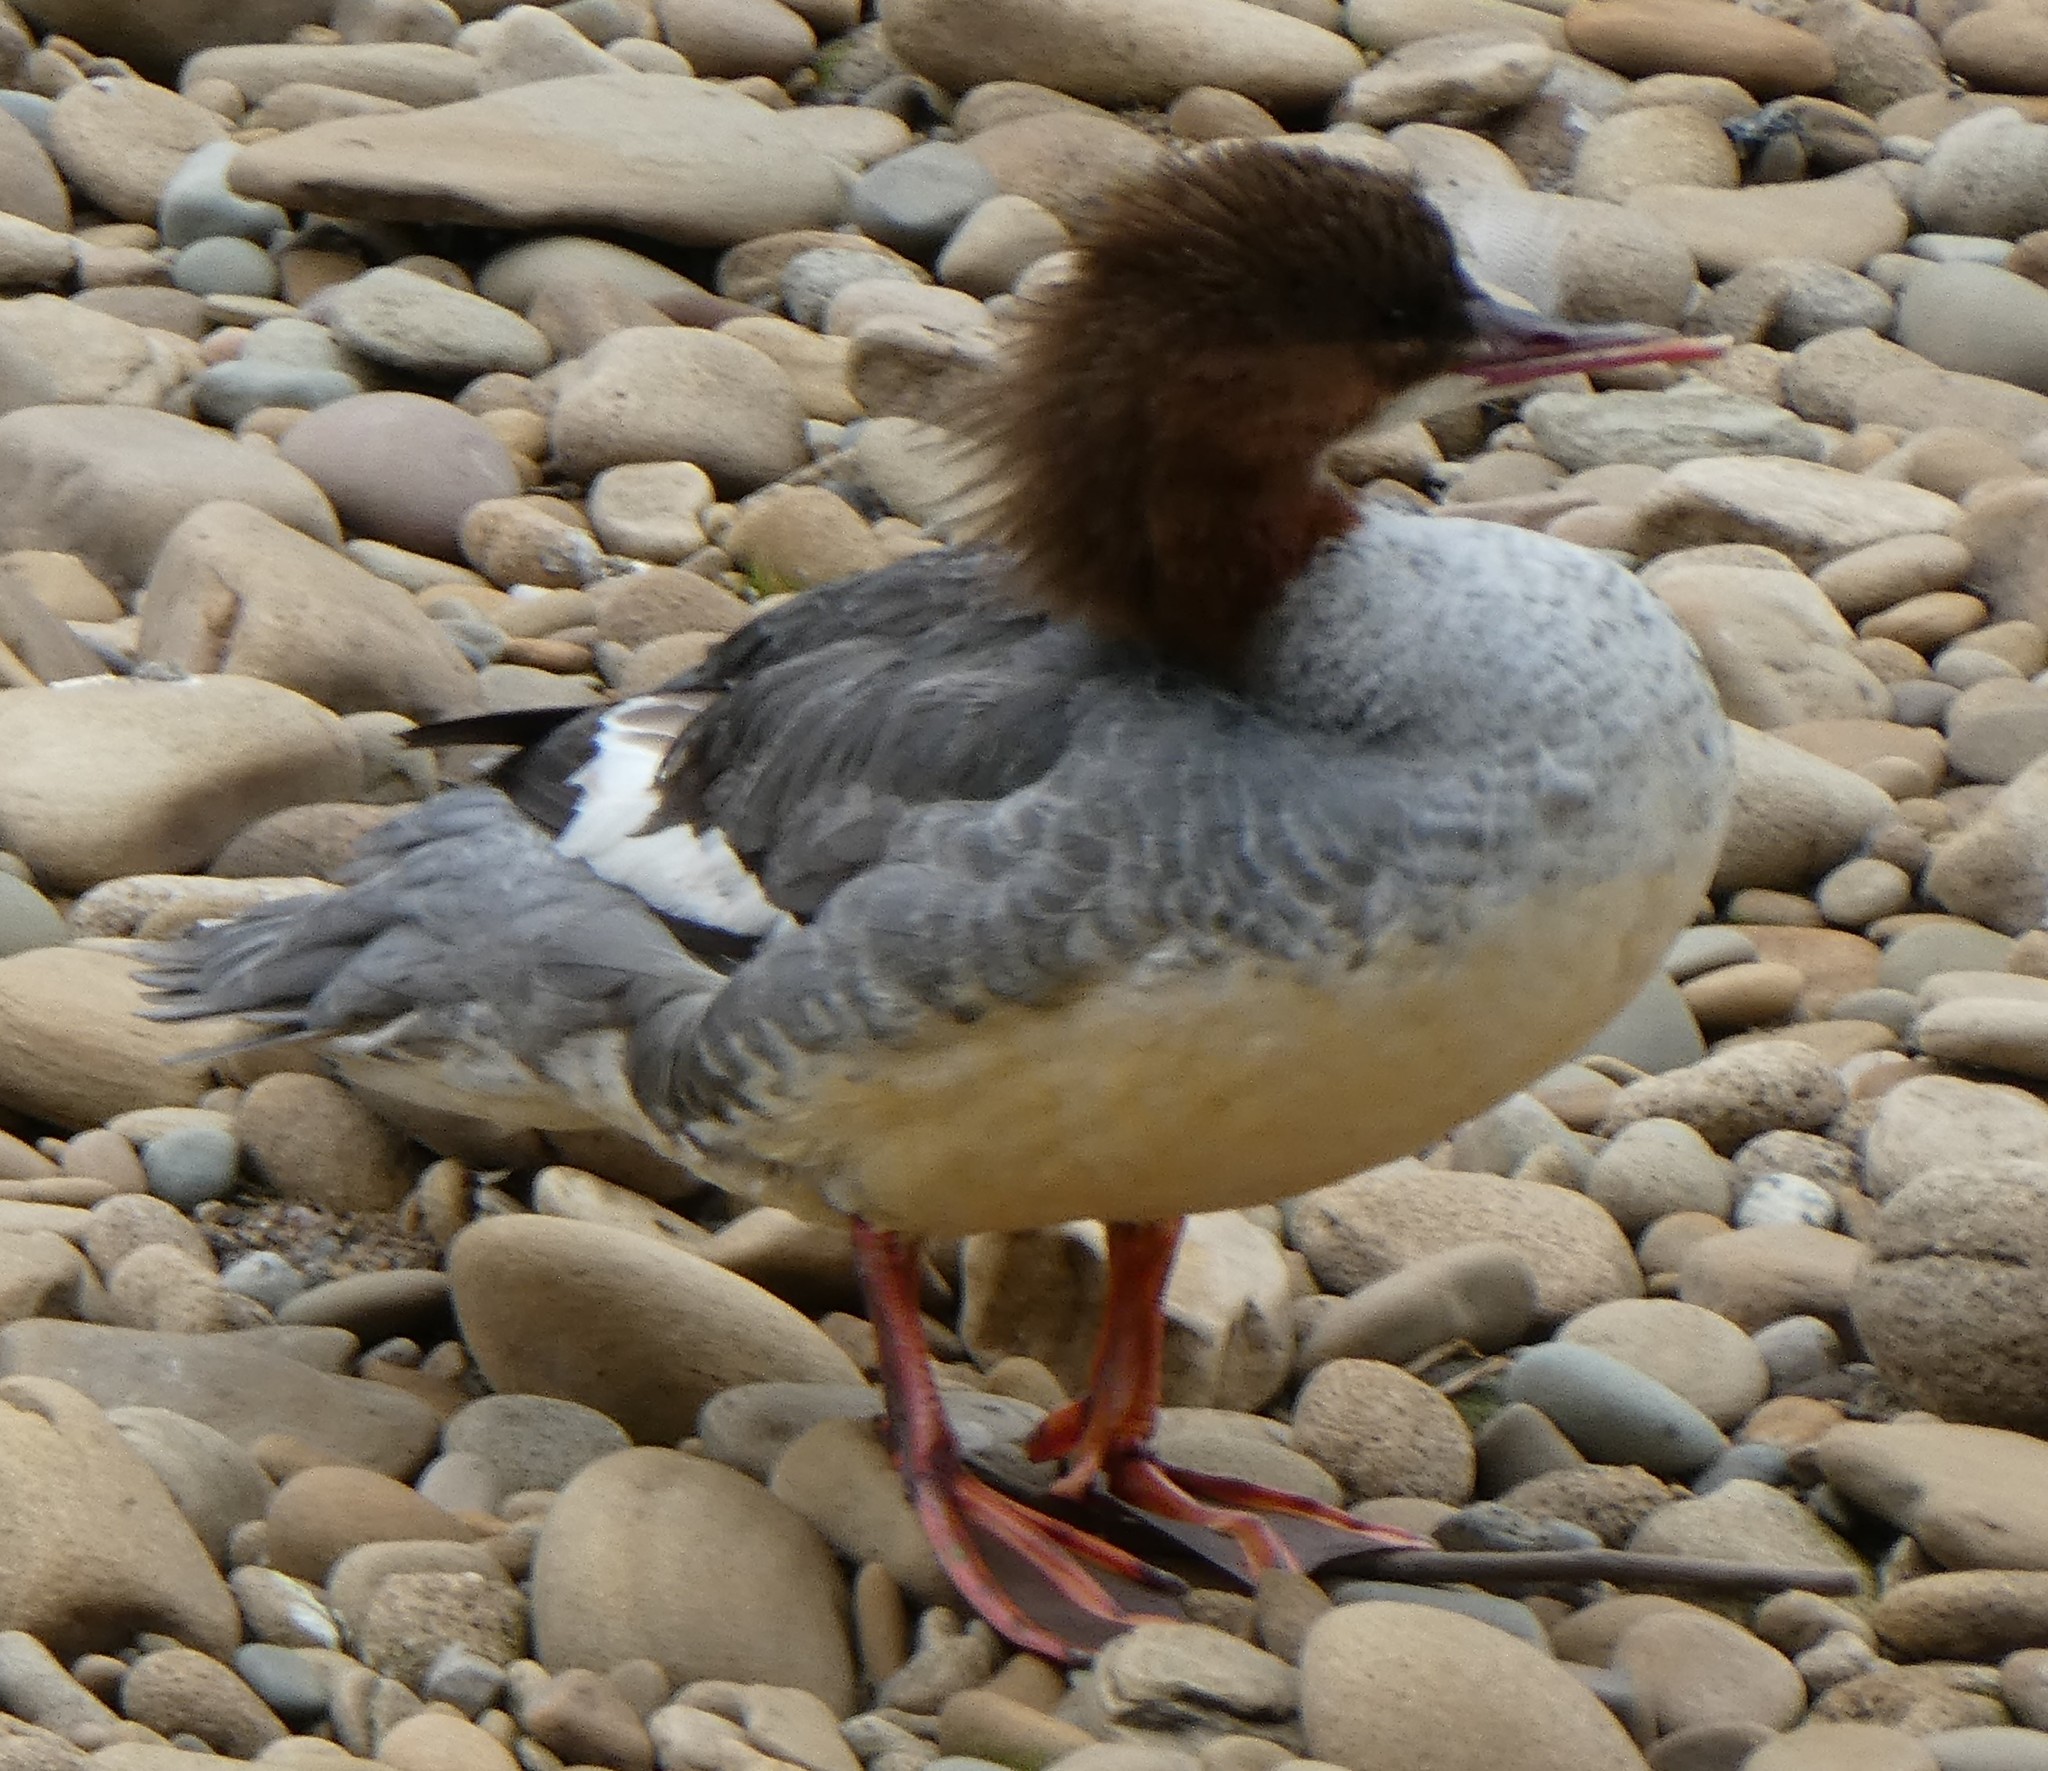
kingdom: Animalia
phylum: Chordata
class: Aves
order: Anseriformes
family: Anatidae
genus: Mergus
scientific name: Mergus merganser
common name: Common merganser
